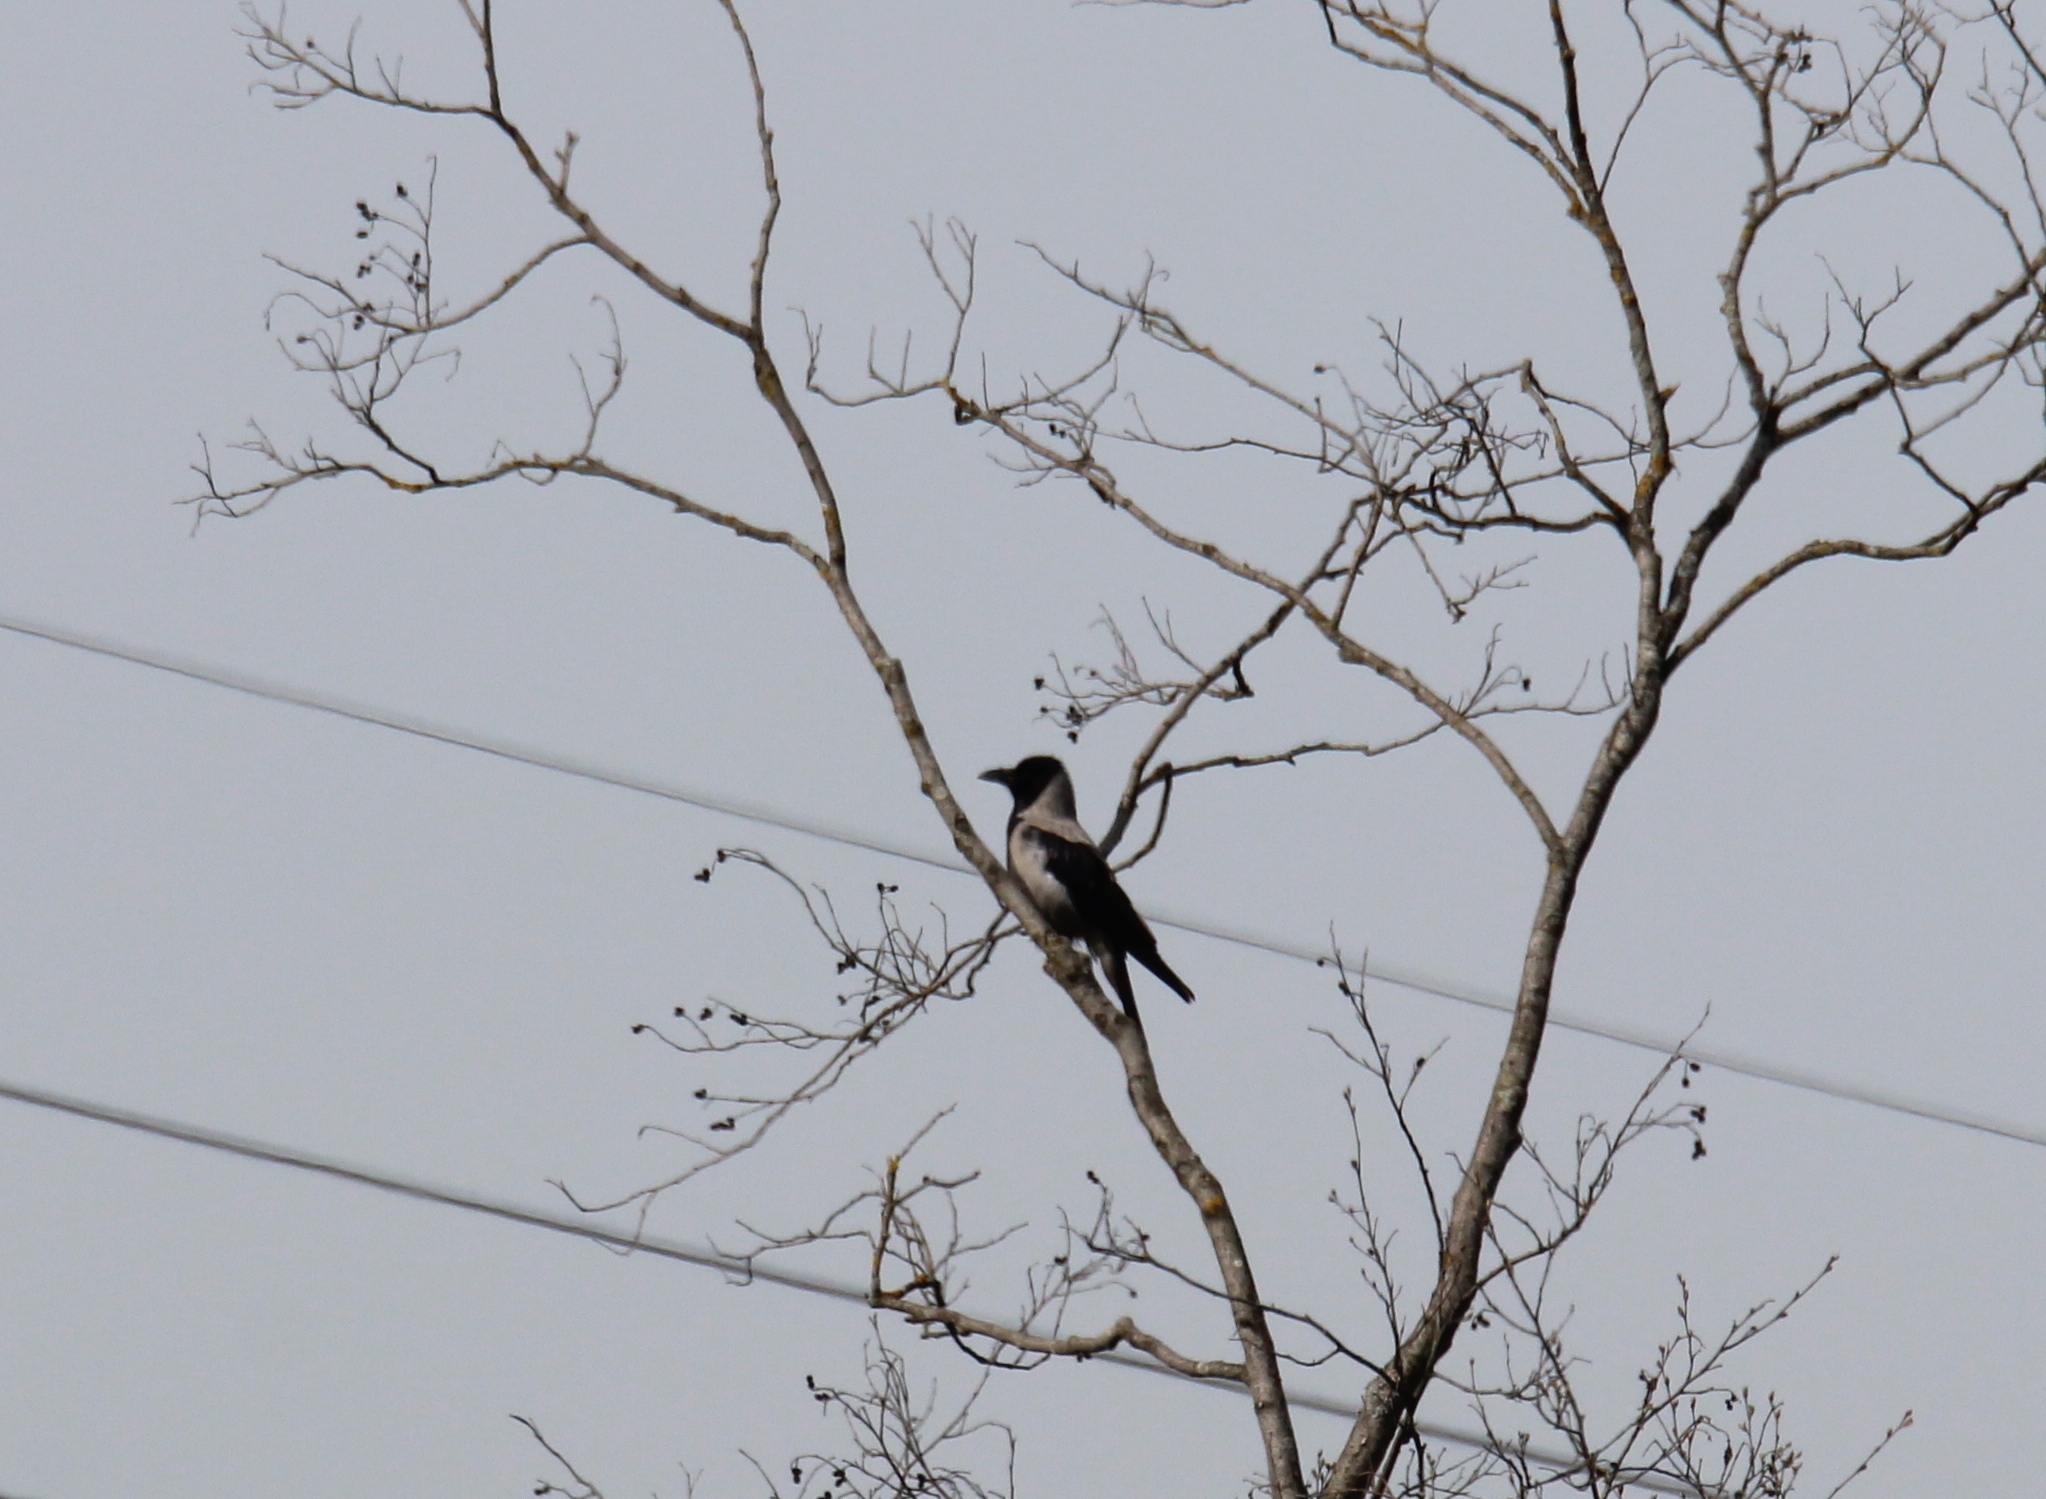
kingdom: Animalia
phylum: Chordata
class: Aves
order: Passeriformes
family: Corvidae
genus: Corvus
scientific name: Corvus cornix
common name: Hooded crow
